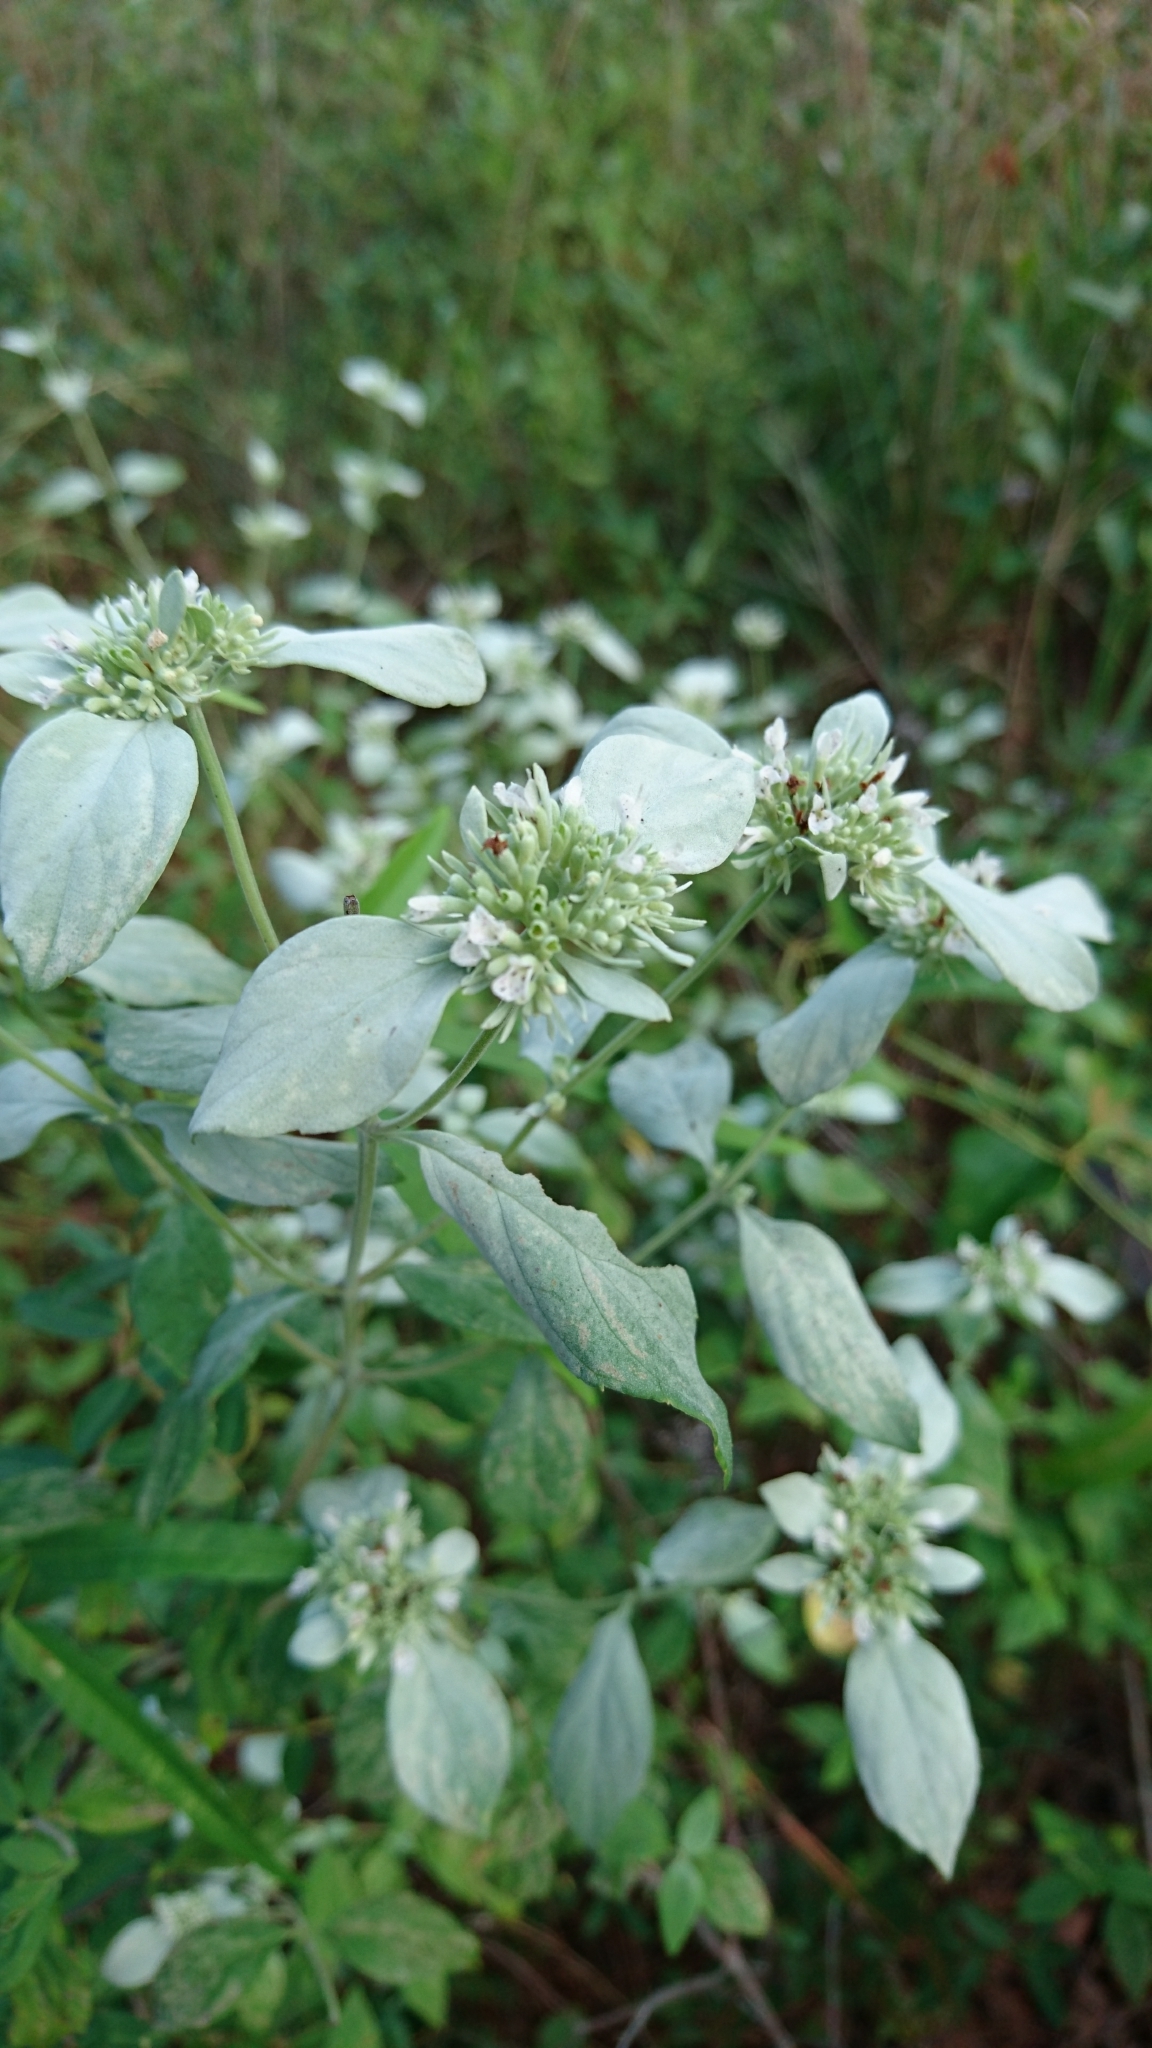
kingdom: Plantae
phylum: Tracheophyta
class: Magnoliopsida
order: Lamiales
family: Lamiaceae
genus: Pycnanthemum
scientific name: Pycnanthemum albescens
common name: White-leaf mountain-mint
